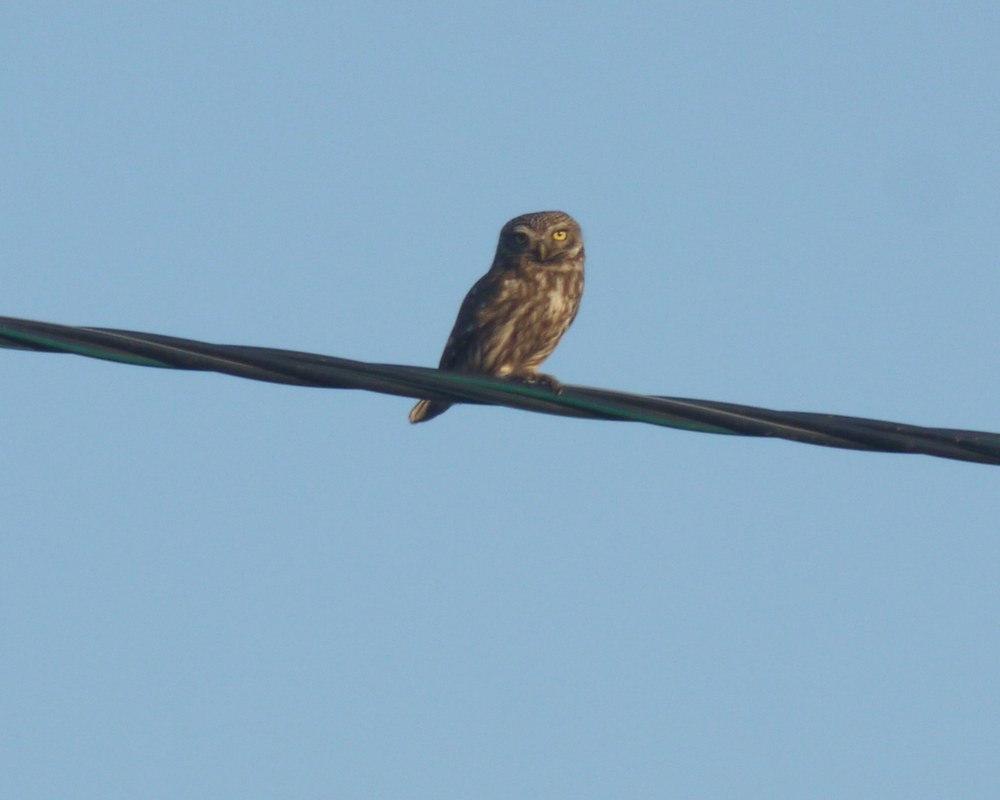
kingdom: Animalia
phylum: Chordata
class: Aves
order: Strigiformes
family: Strigidae
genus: Athene
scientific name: Athene noctua
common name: Little owl
